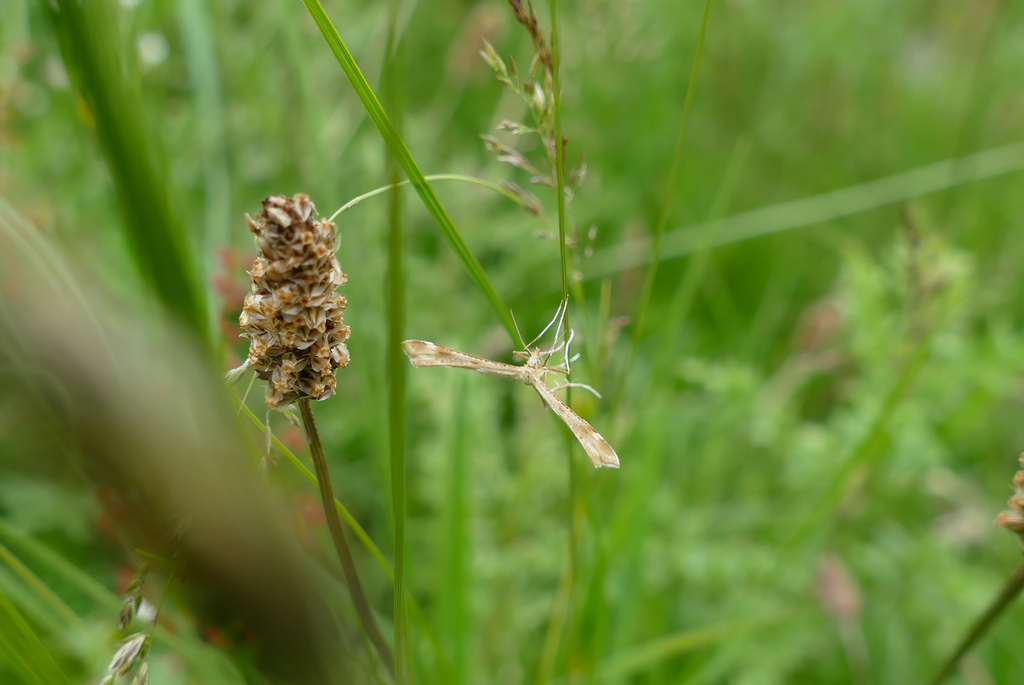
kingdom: Animalia
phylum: Arthropoda
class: Insecta
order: Lepidoptera
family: Pterophoridae
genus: Gillmeria
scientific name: Gillmeria pallidactyla
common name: Yarrow plume
